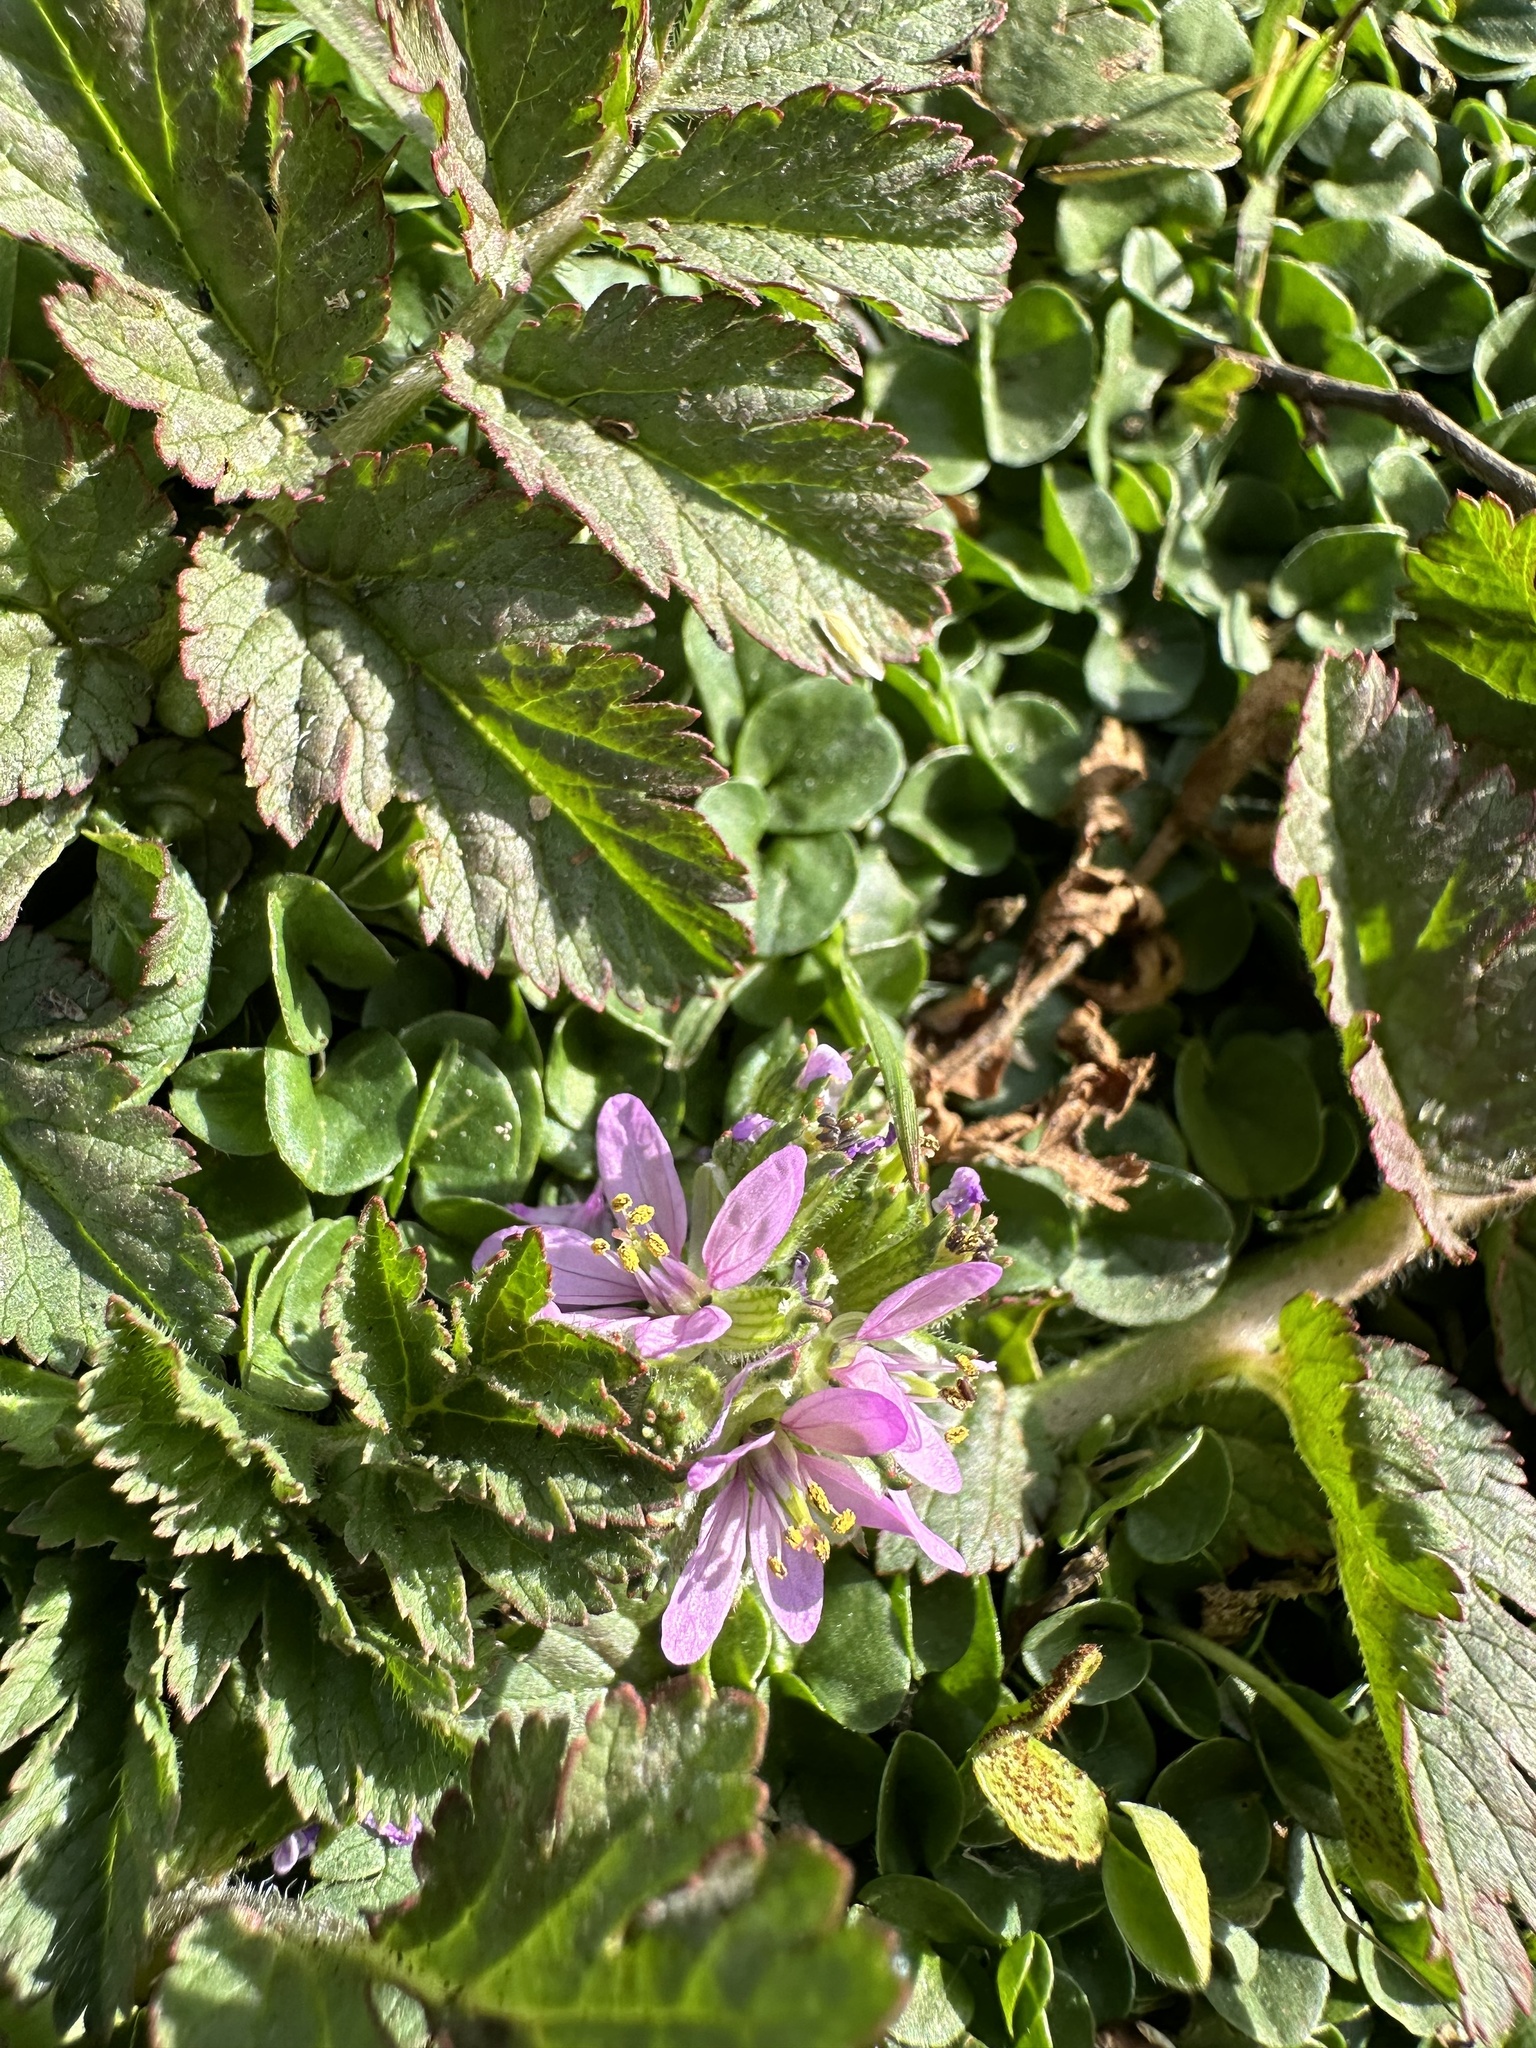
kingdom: Plantae
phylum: Tracheophyta
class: Magnoliopsida
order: Geraniales
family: Geraniaceae
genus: Erodium
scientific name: Erodium moschatum
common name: Musk stork's-bill
